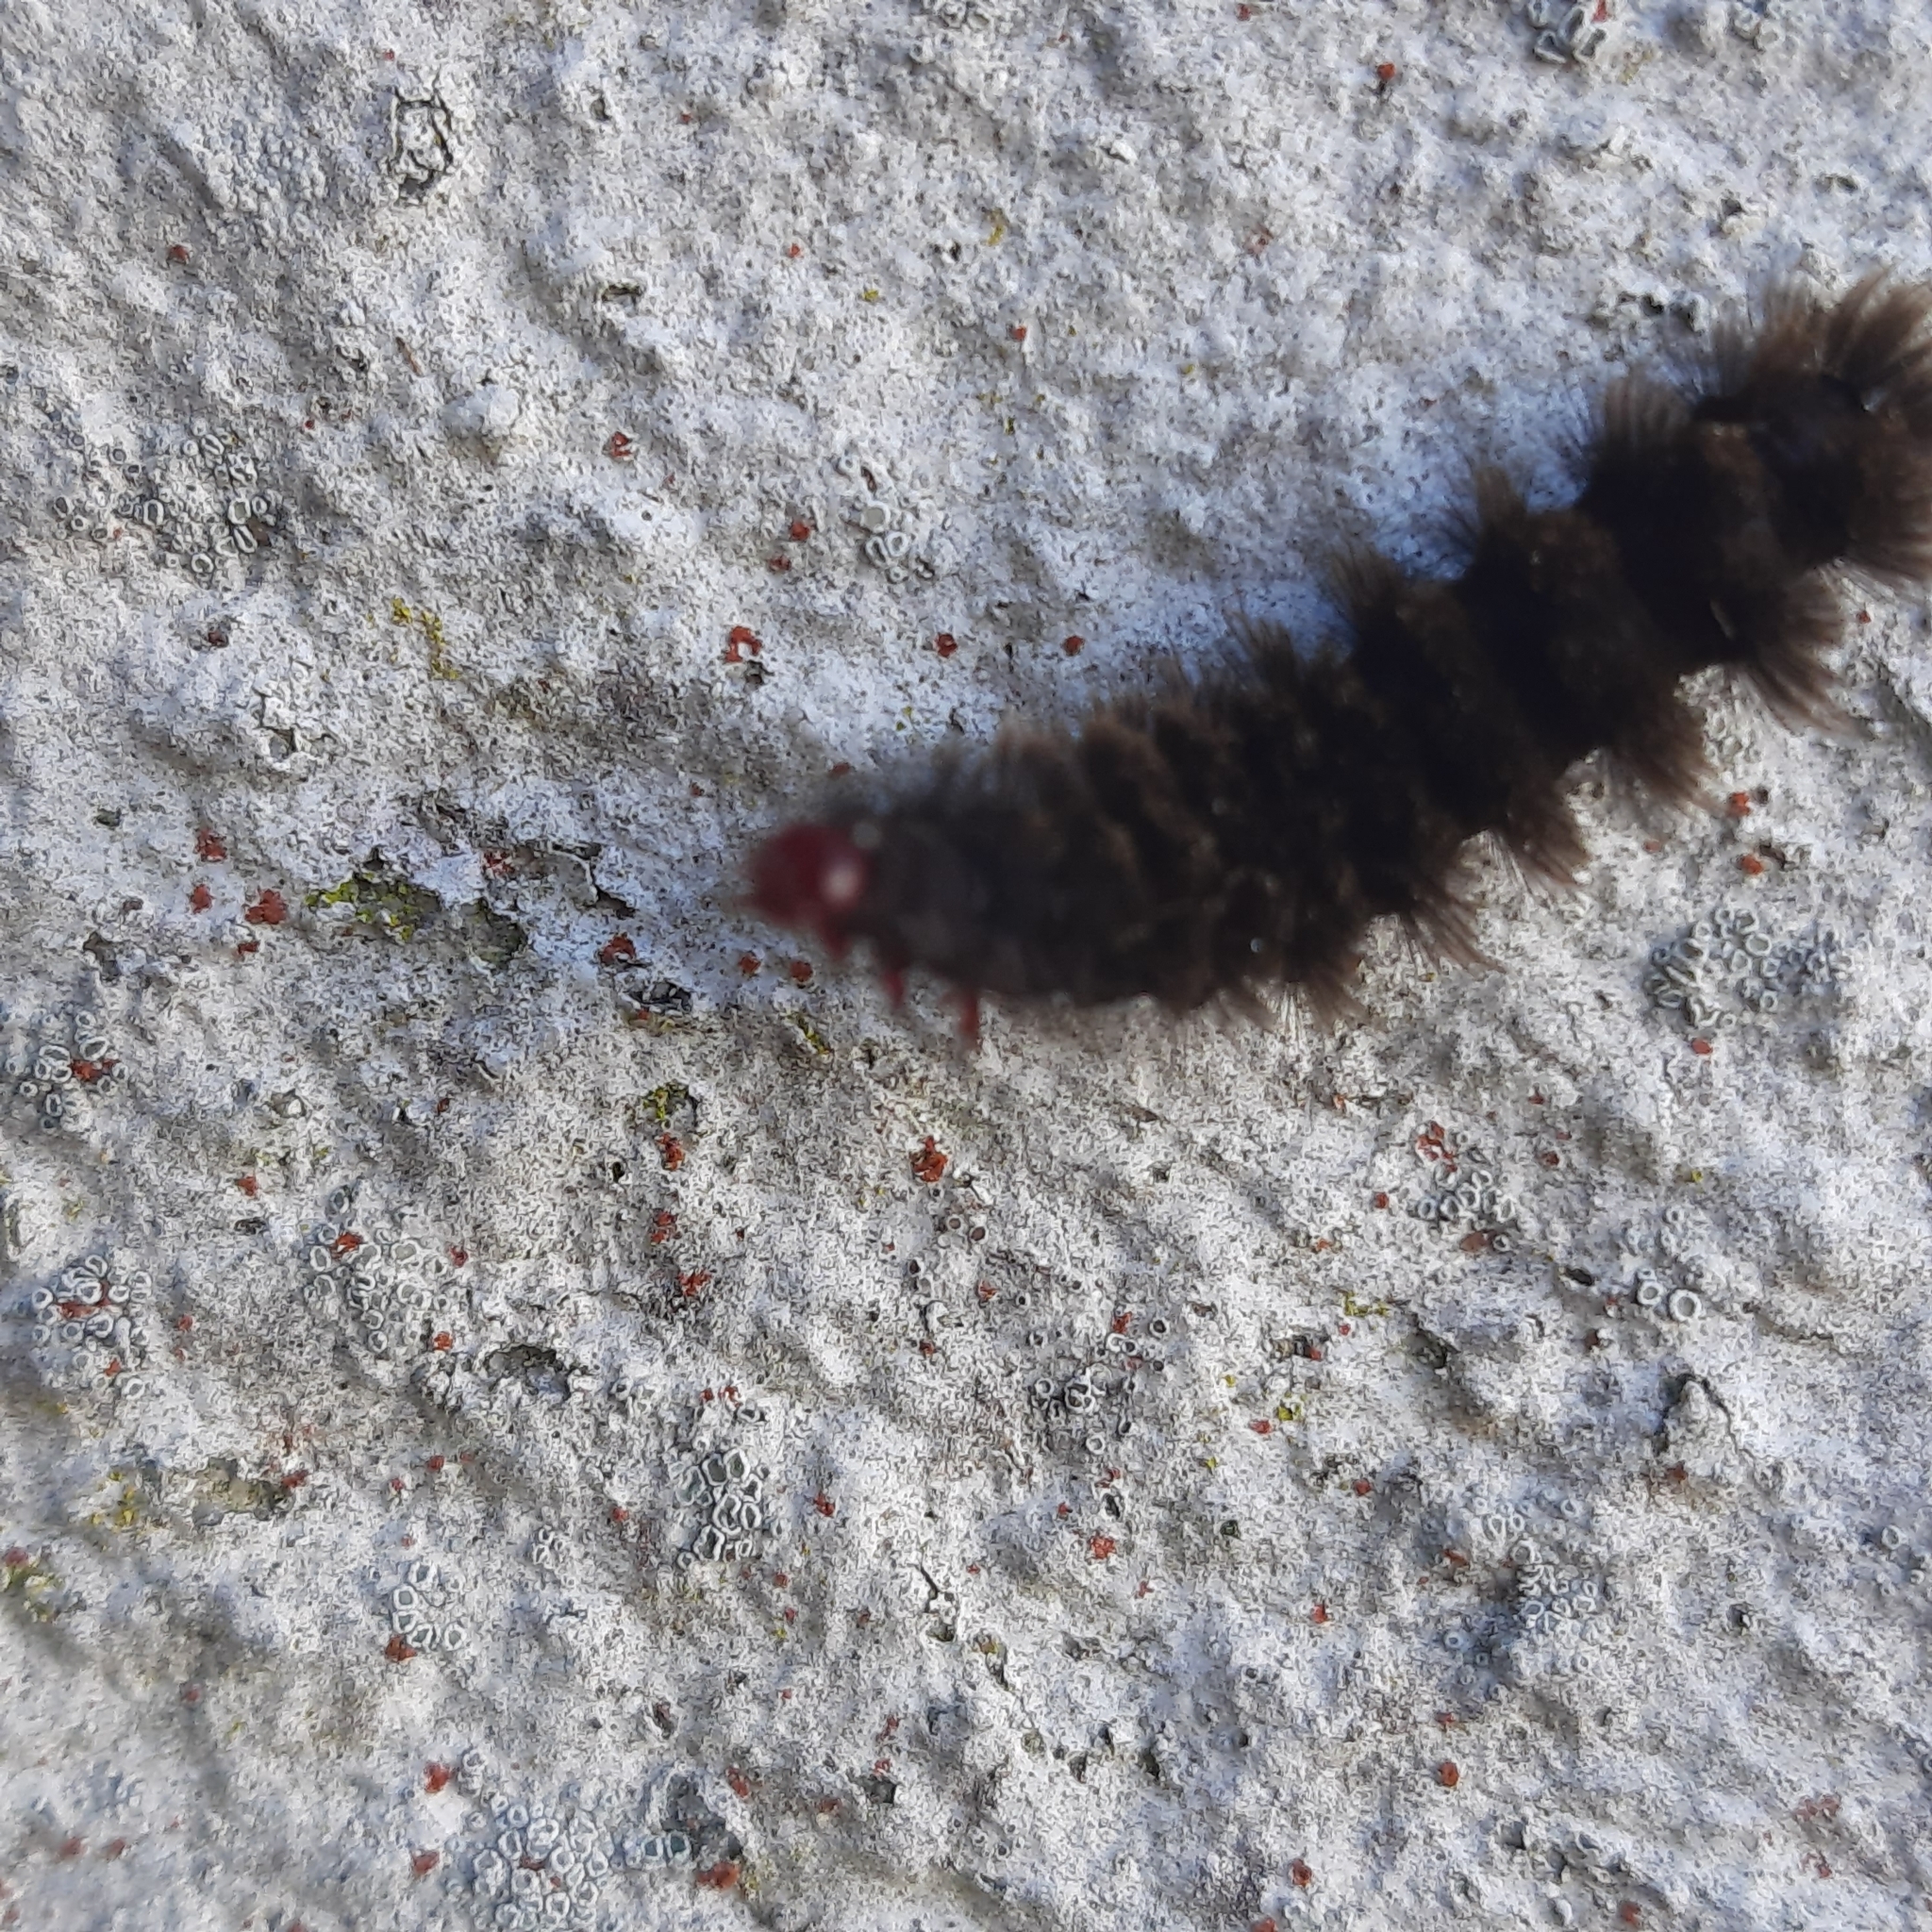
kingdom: Animalia
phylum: Arthropoda
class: Insecta
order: Lepidoptera
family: Erebidae
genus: Amata
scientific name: Amata phegea
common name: Nine-spotted
